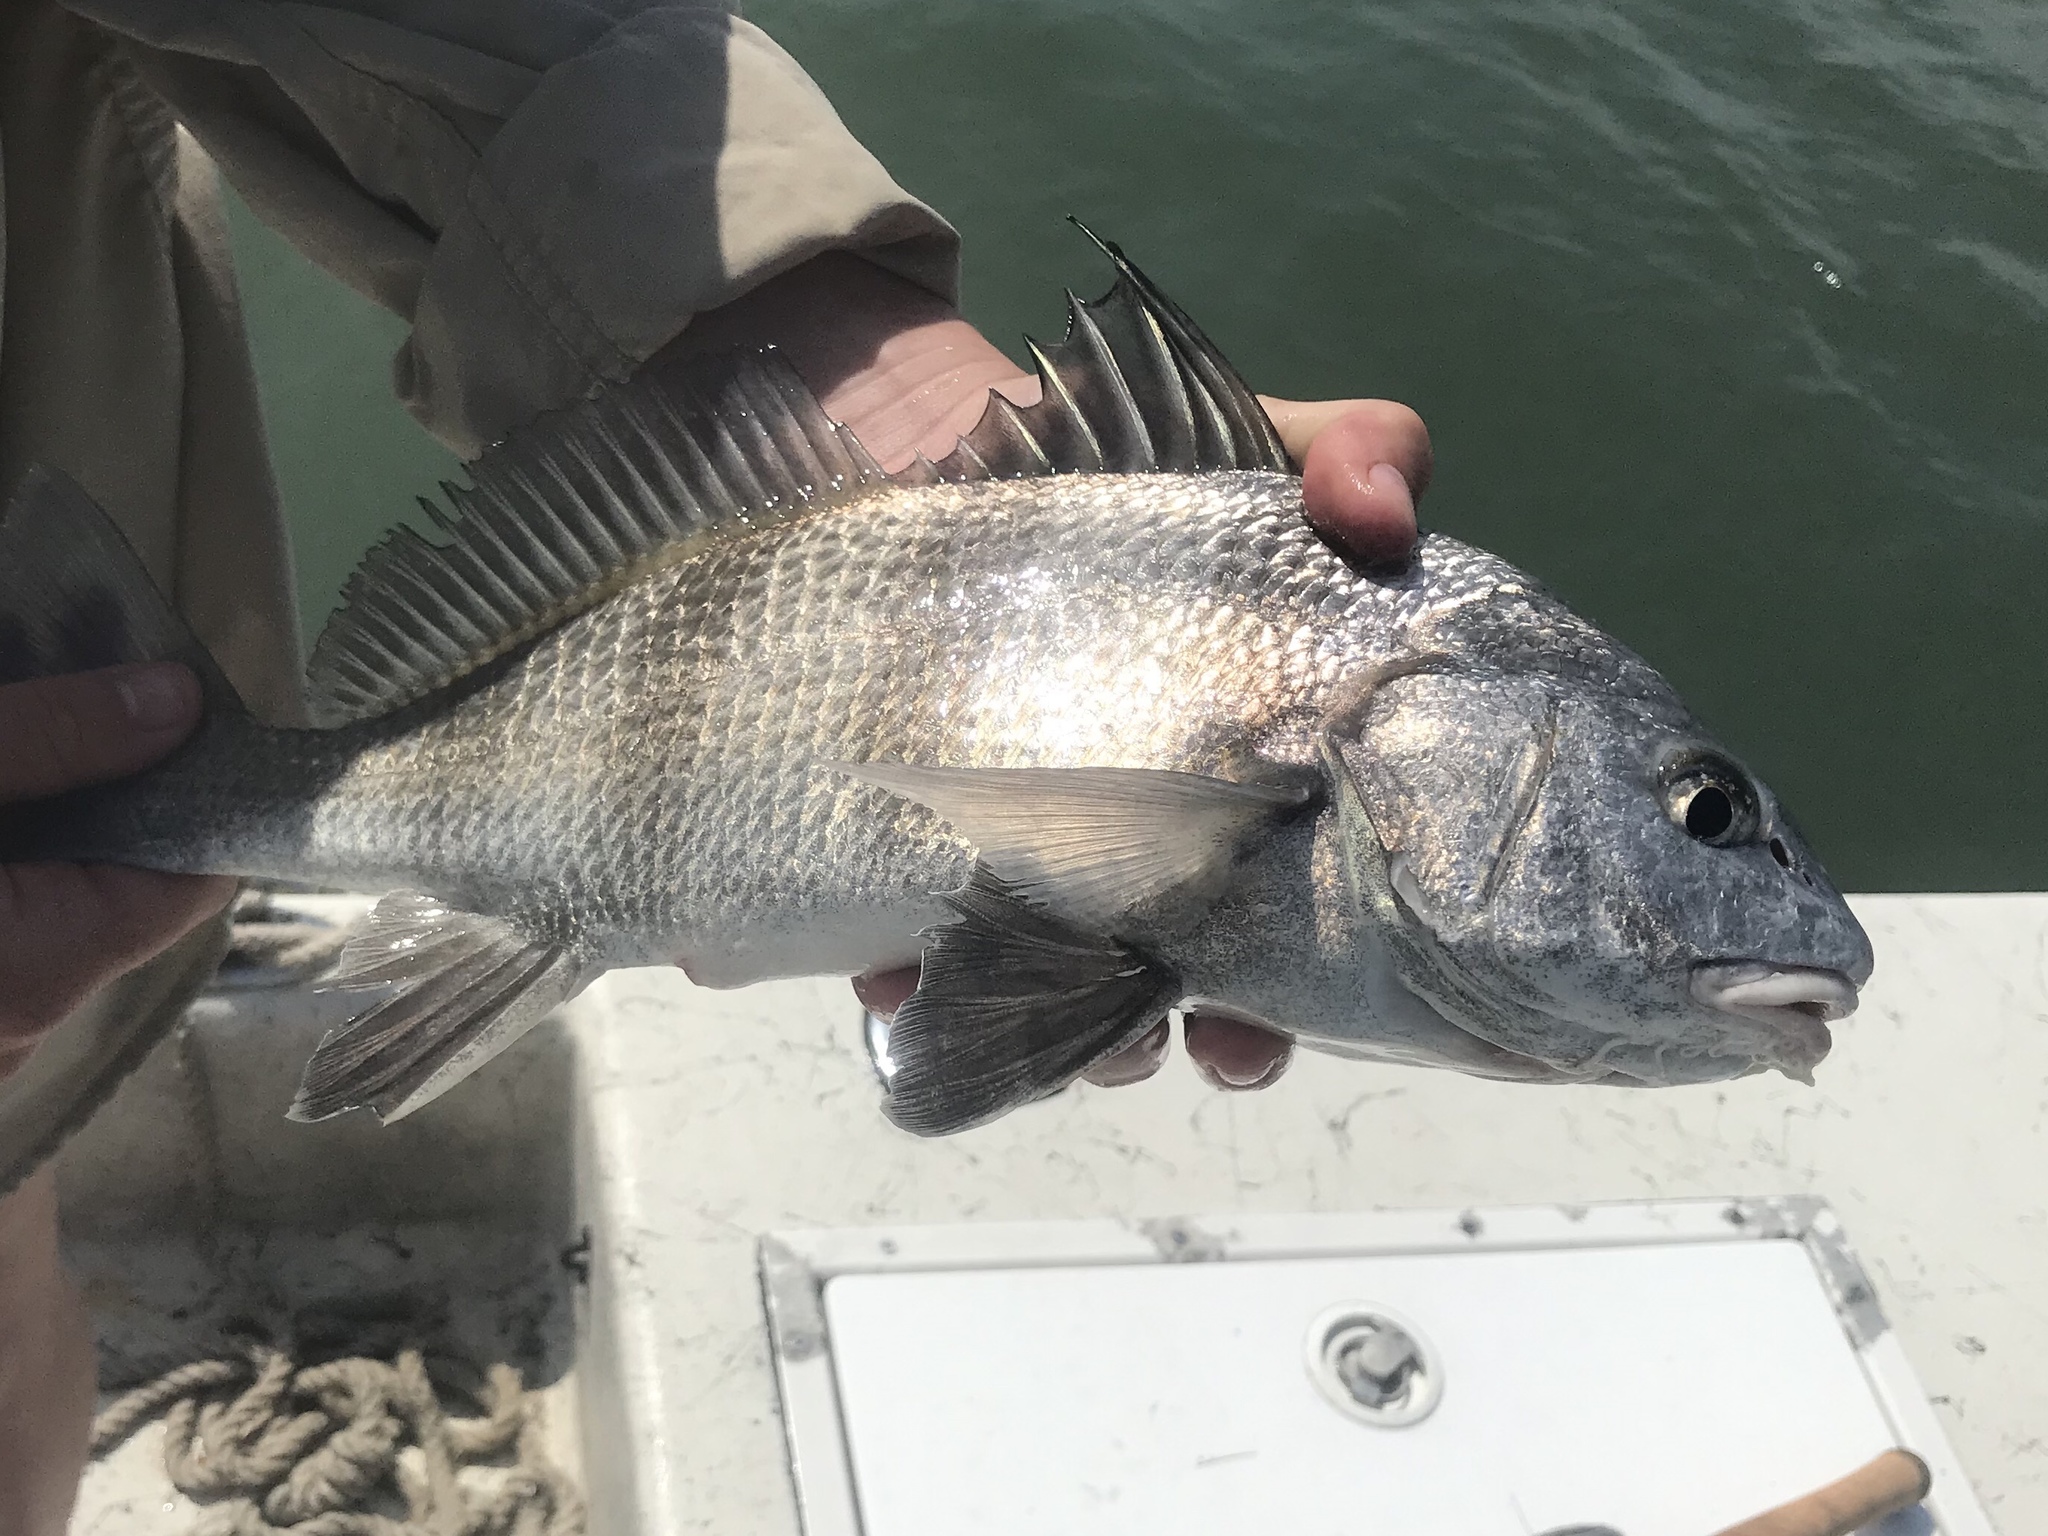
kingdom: Animalia
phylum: Chordata
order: Perciformes
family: Sciaenidae
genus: Pogonias
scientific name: Pogonias cromis
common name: Black drum
